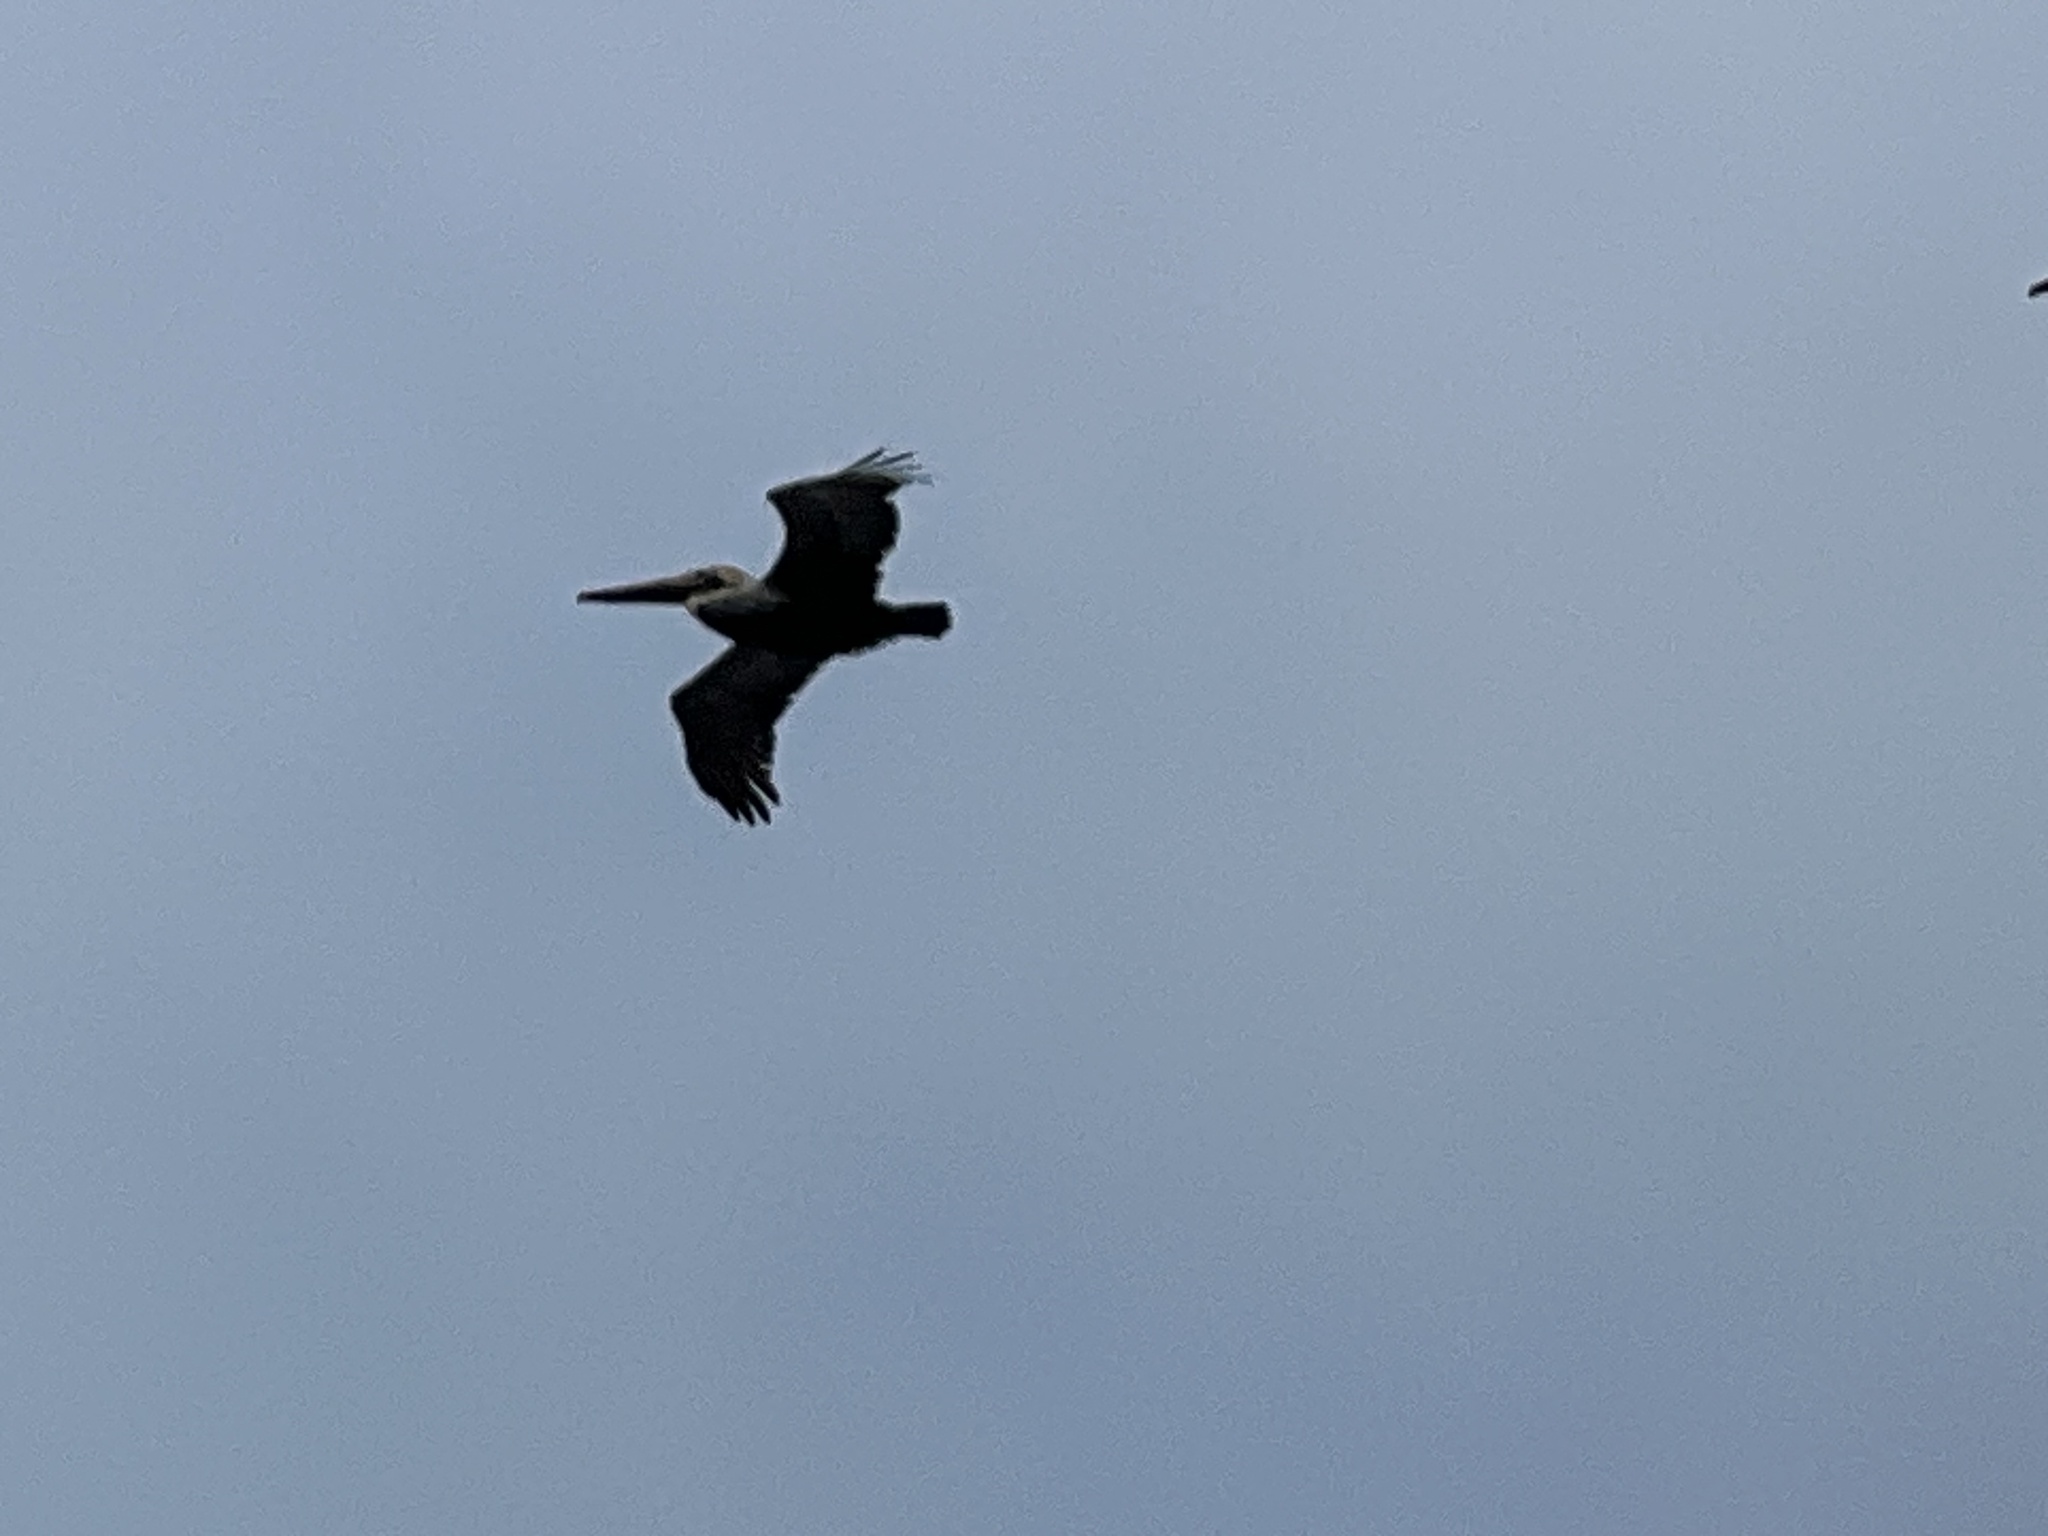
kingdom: Animalia
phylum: Chordata
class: Aves
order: Pelecaniformes
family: Pelecanidae
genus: Pelecanus
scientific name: Pelecanus occidentalis
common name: Brown pelican
